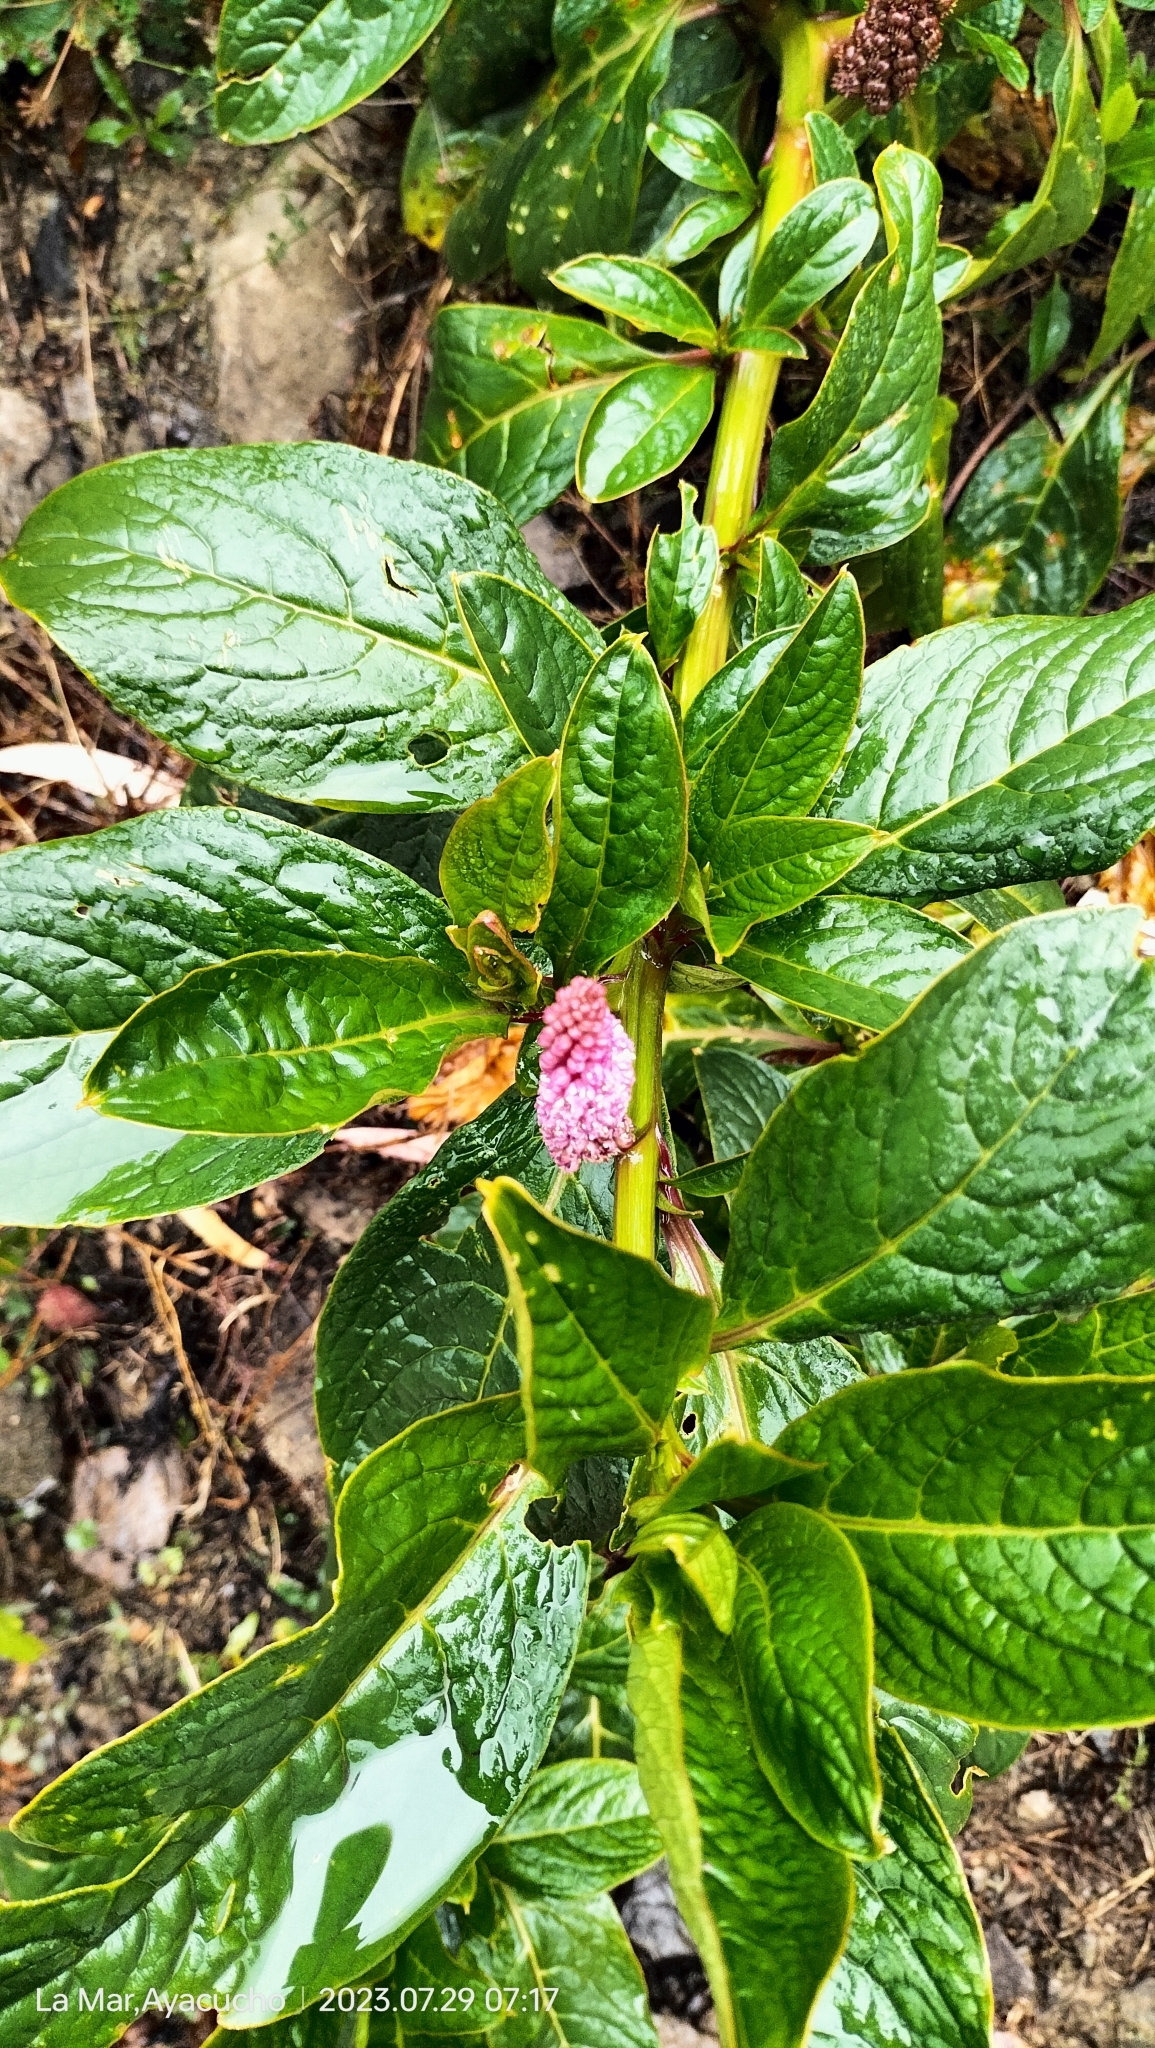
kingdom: Plantae
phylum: Tracheophyta
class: Magnoliopsida
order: Caryophyllales
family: Phytolaccaceae
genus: Phytolacca
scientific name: Phytolacca bogotensis
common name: Southern pokeweed
